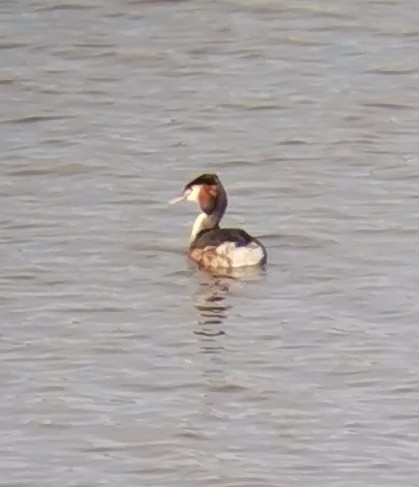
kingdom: Animalia
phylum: Chordata
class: Aves
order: Podicipediformes
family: Podicipedidae
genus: Podiceps
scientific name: Podiceps cristatus
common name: Great crested grebe
